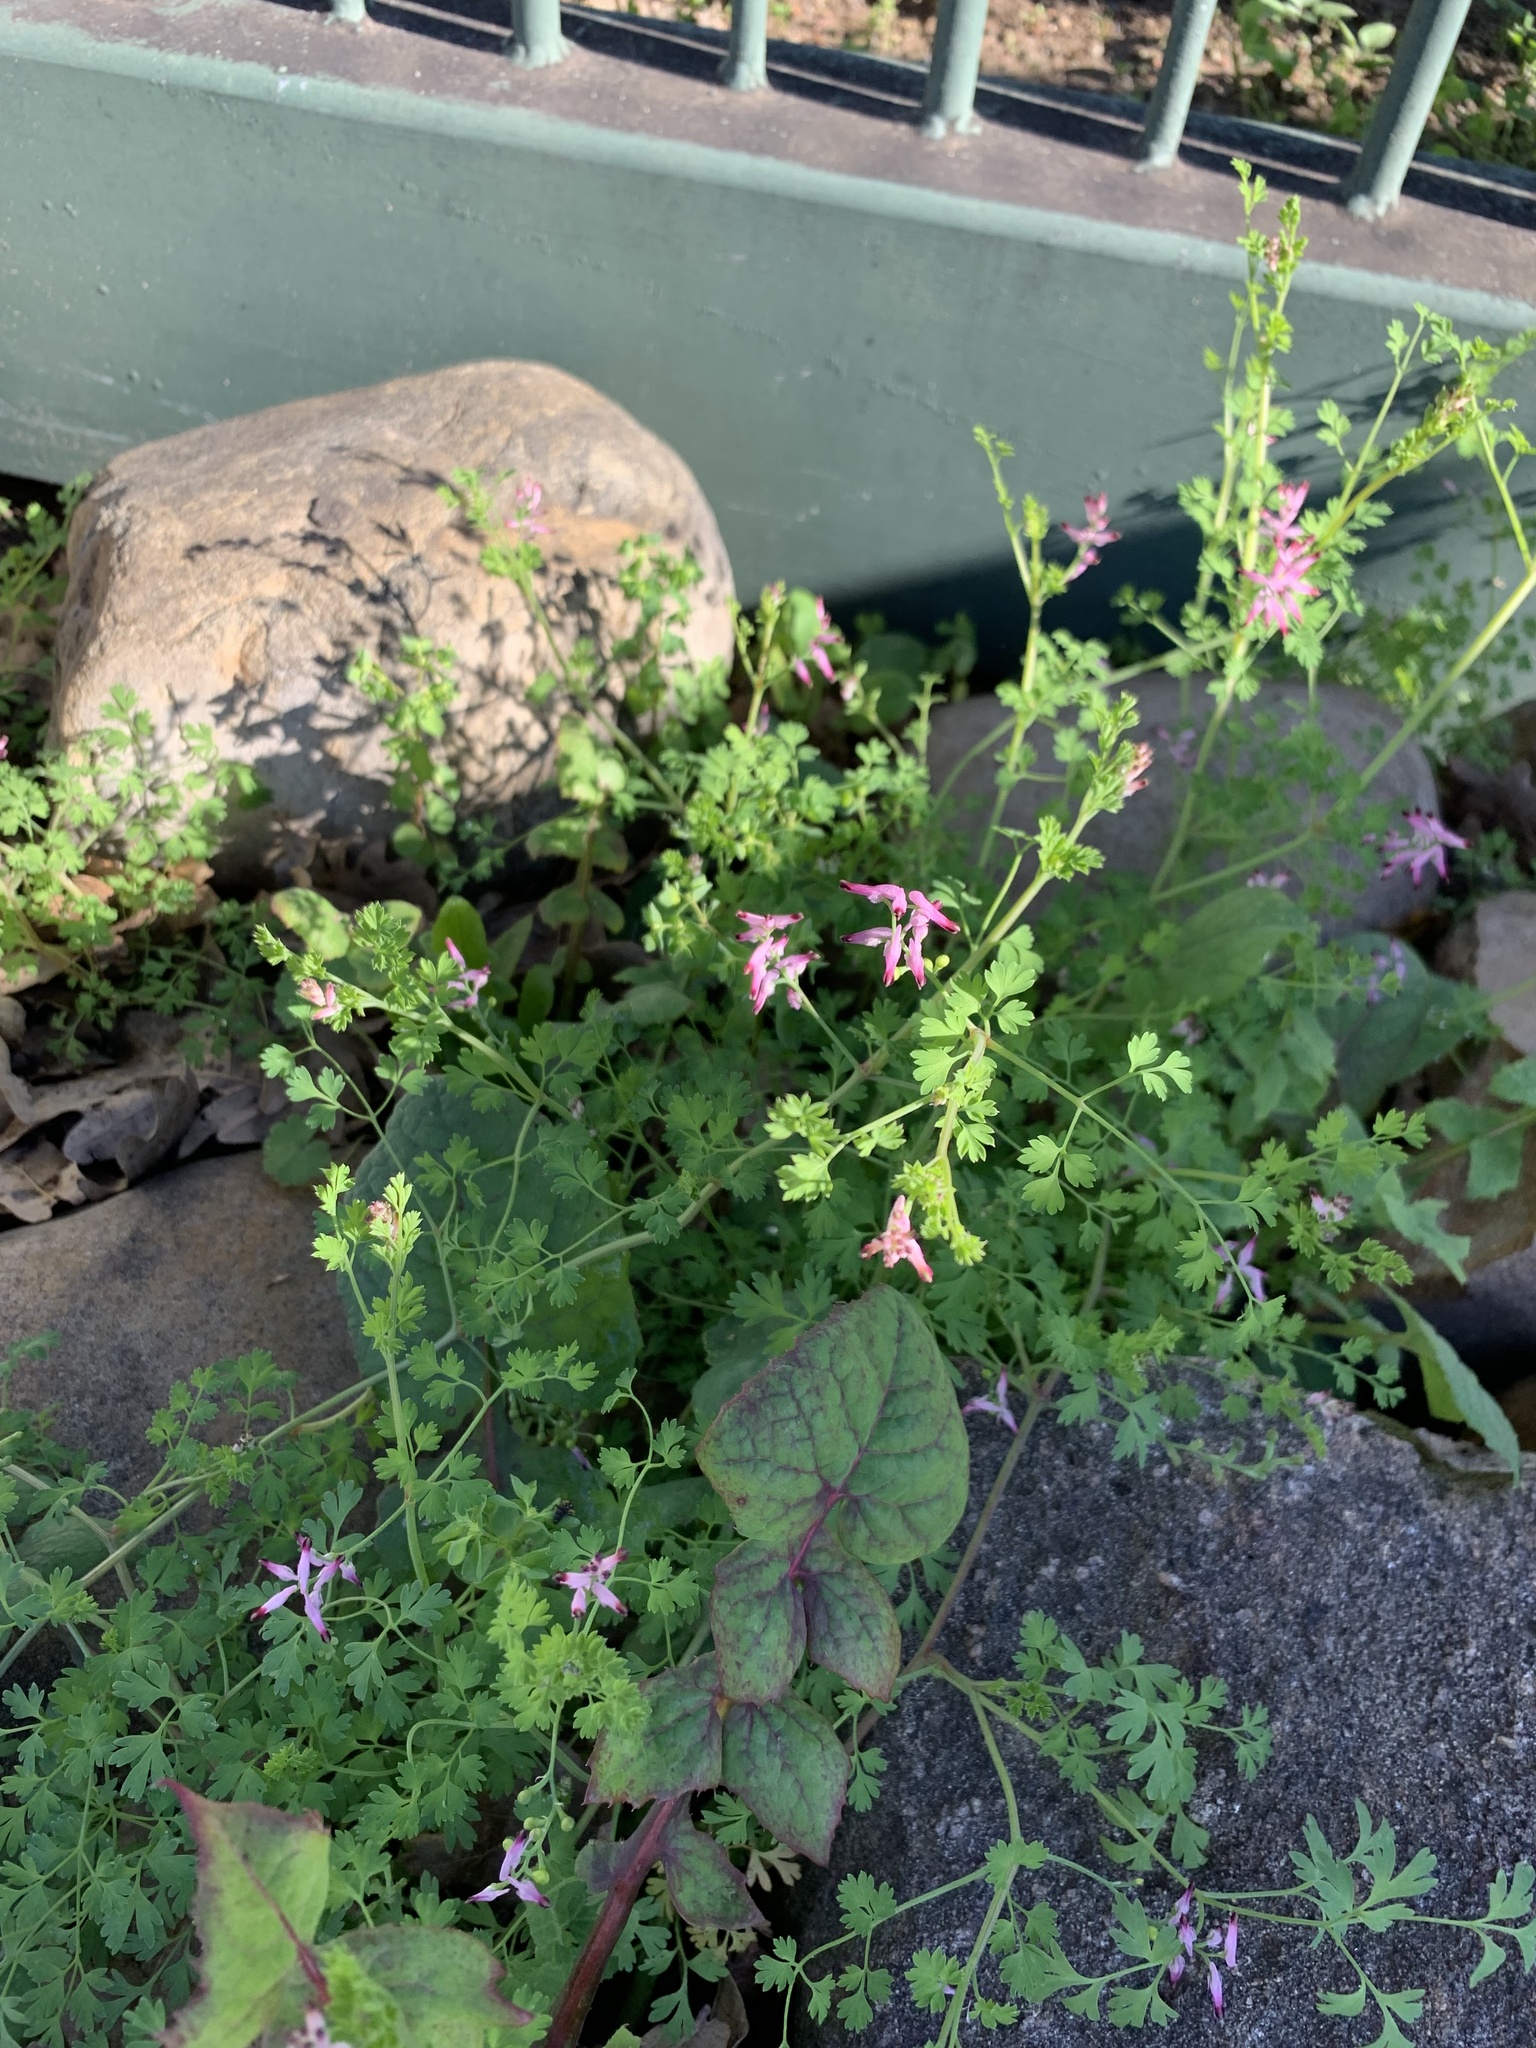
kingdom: Plantae
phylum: Tracheophyta
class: Magnoliopsida
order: Ranunculales
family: Papaveraceae
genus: Fumaria
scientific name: Fumaria muralis
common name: Common ramping-fumitory
